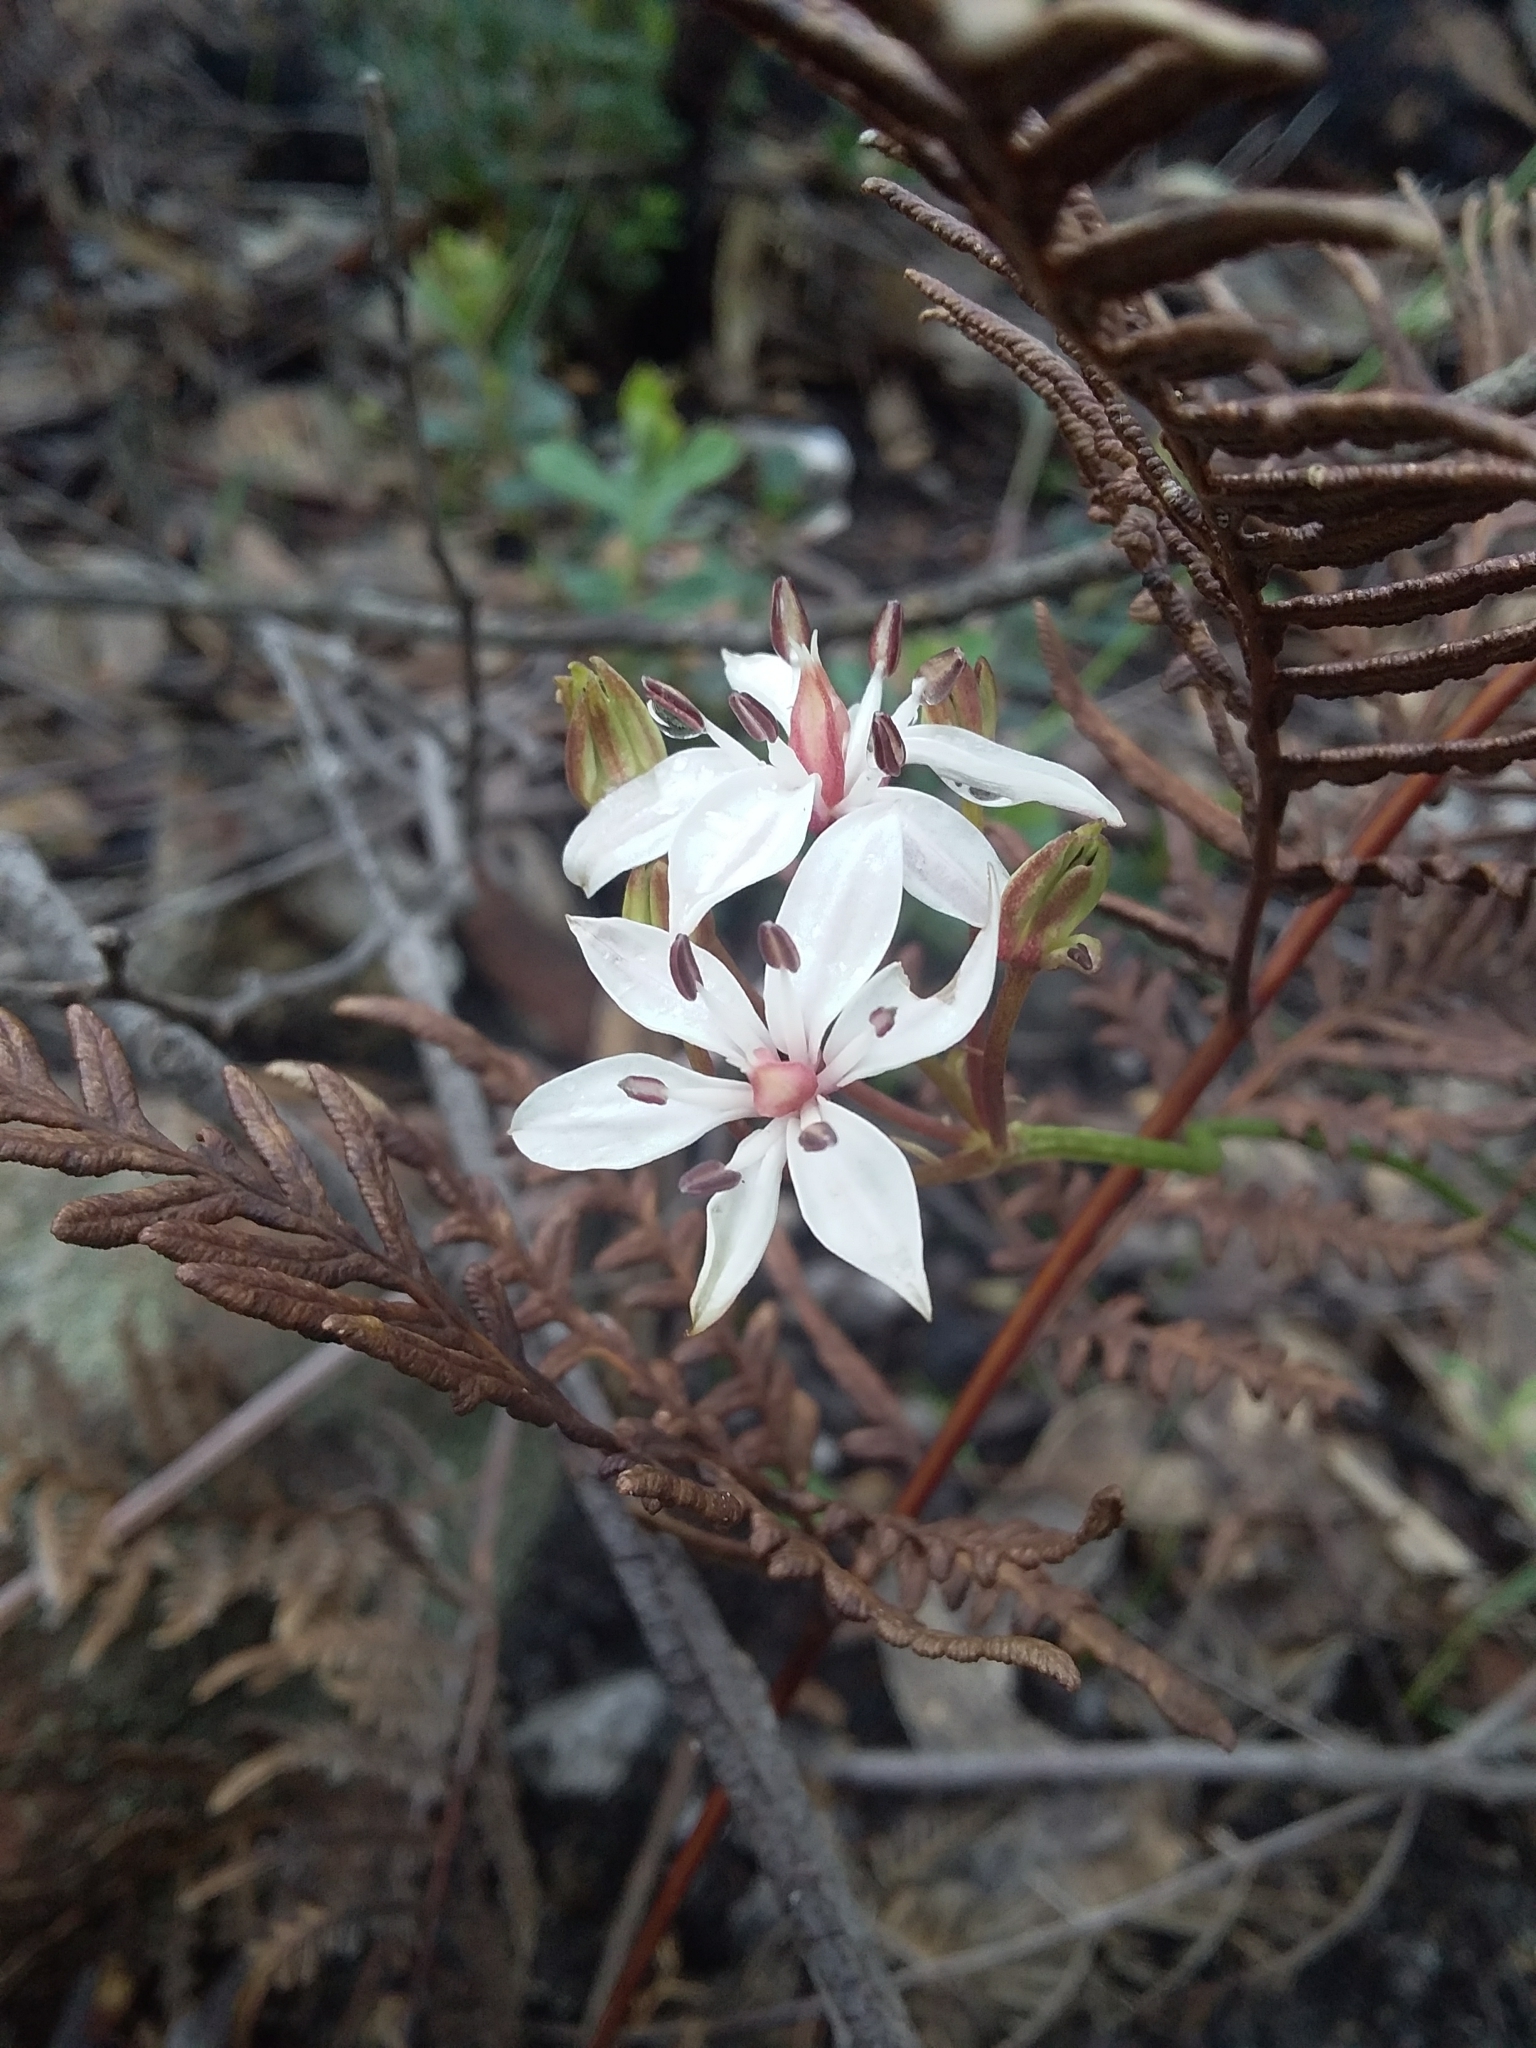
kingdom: Plantae
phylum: Tracheophyta
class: Liliopsida
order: Liliales
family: Colchicaceae
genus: Burchardia
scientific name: Burchardia umbellata
